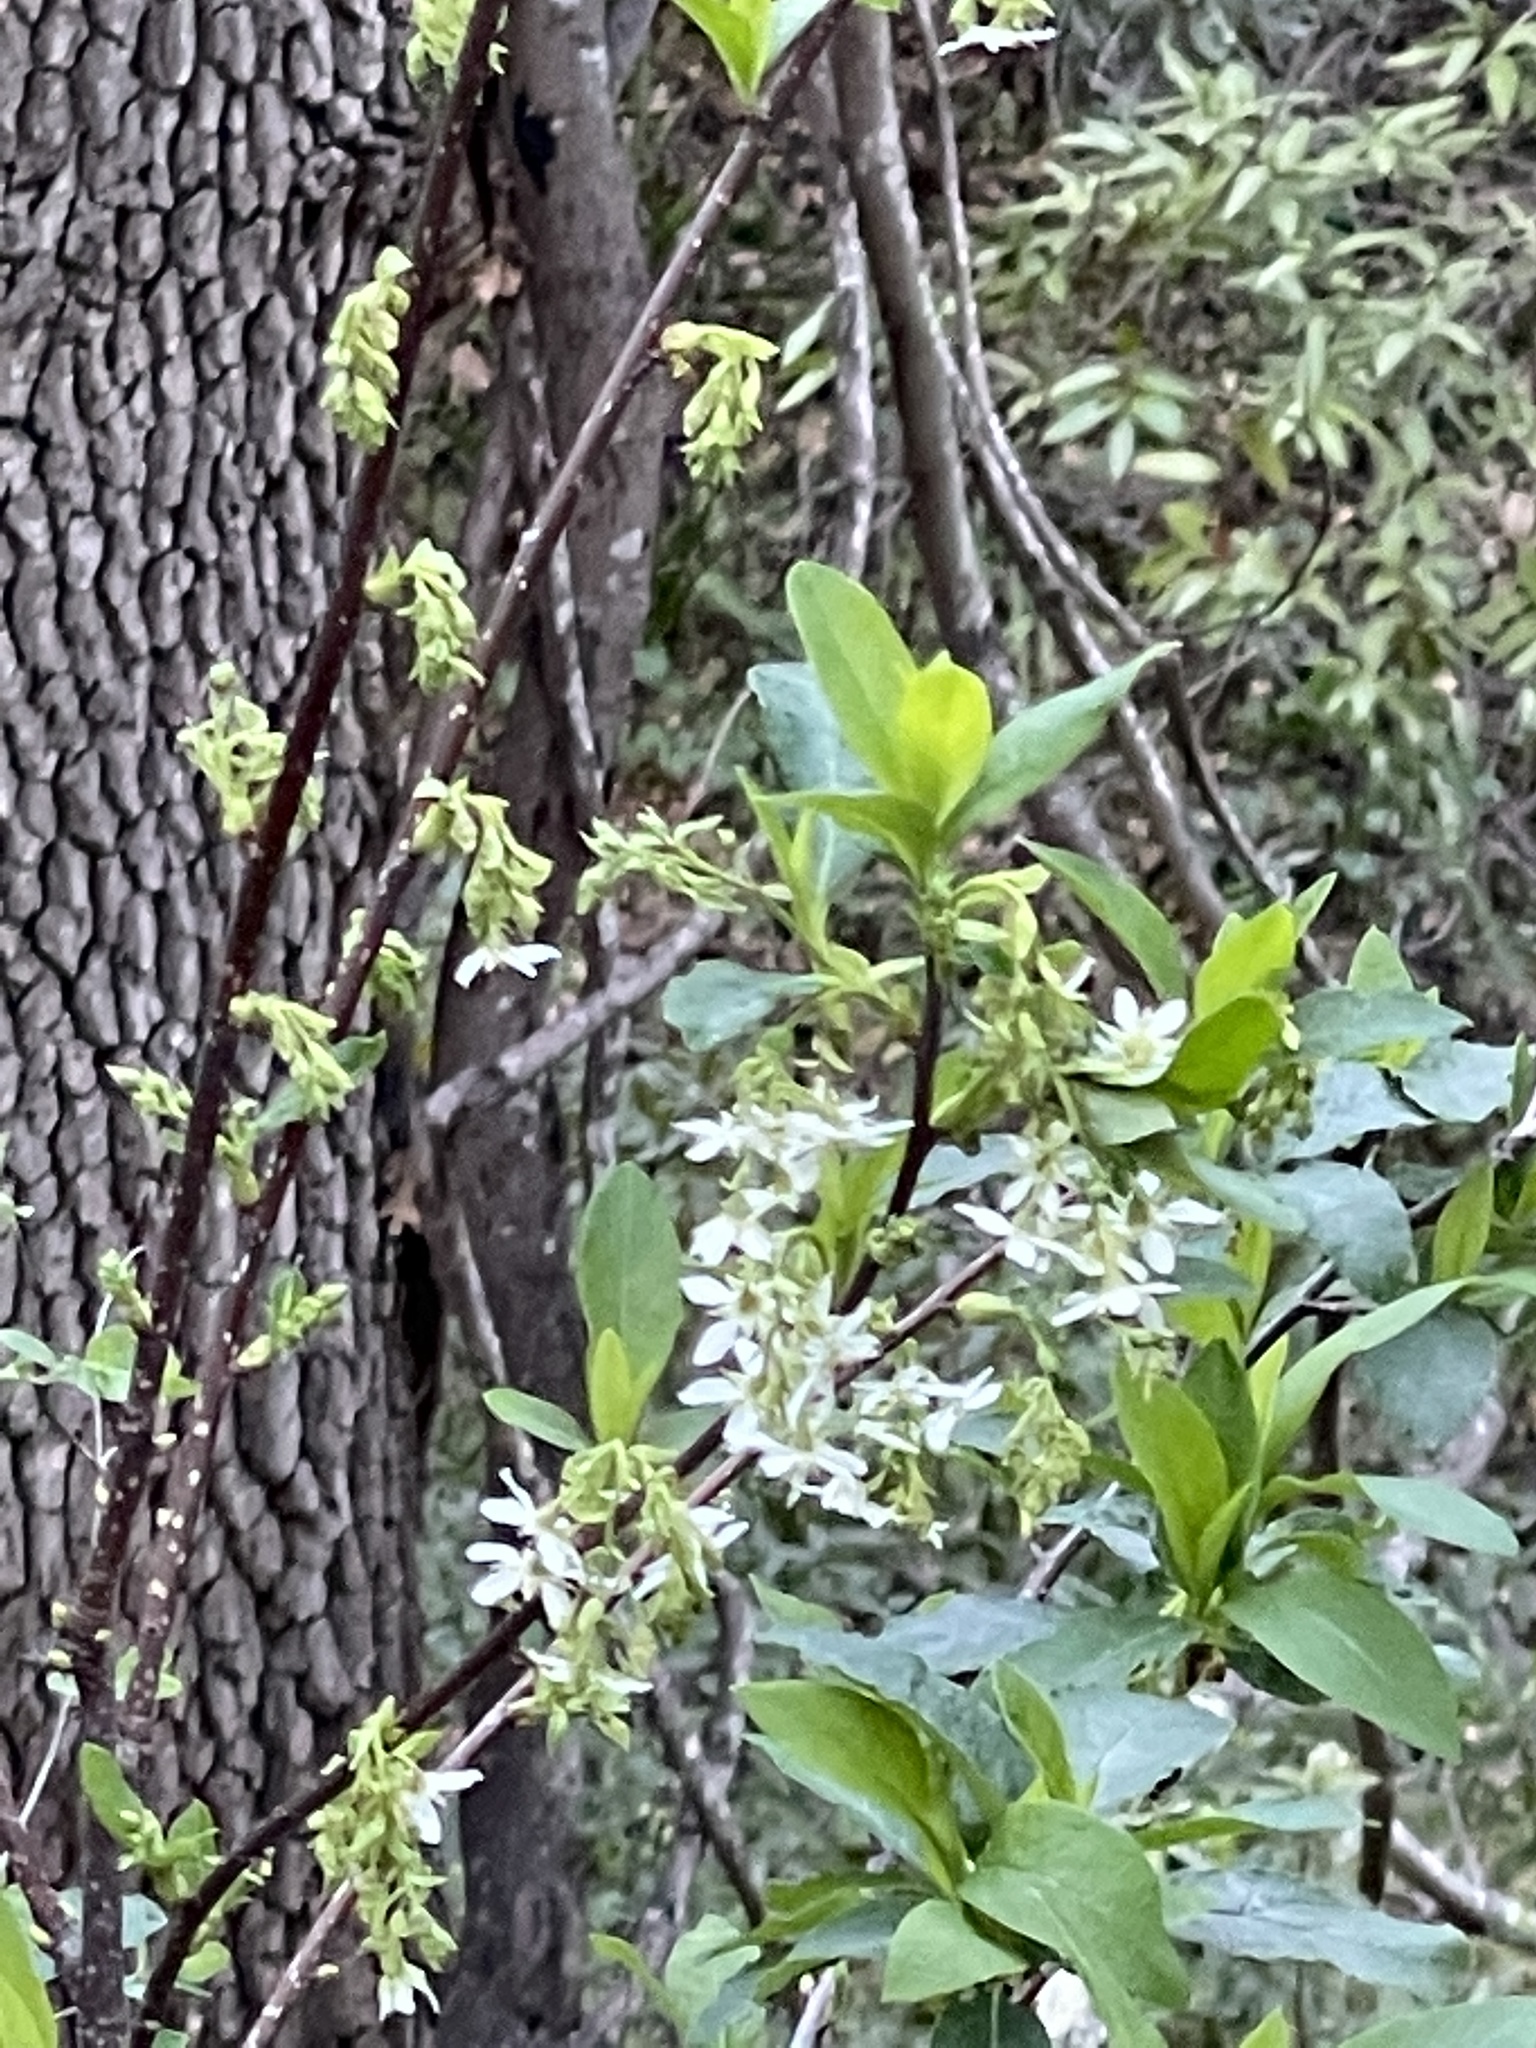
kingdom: Plantae
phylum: Tracheophyta
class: Magnoliopsida
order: Rosales
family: Rosaceae
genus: Oemleria
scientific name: Oemleria cerasiformis
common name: Osoberry
